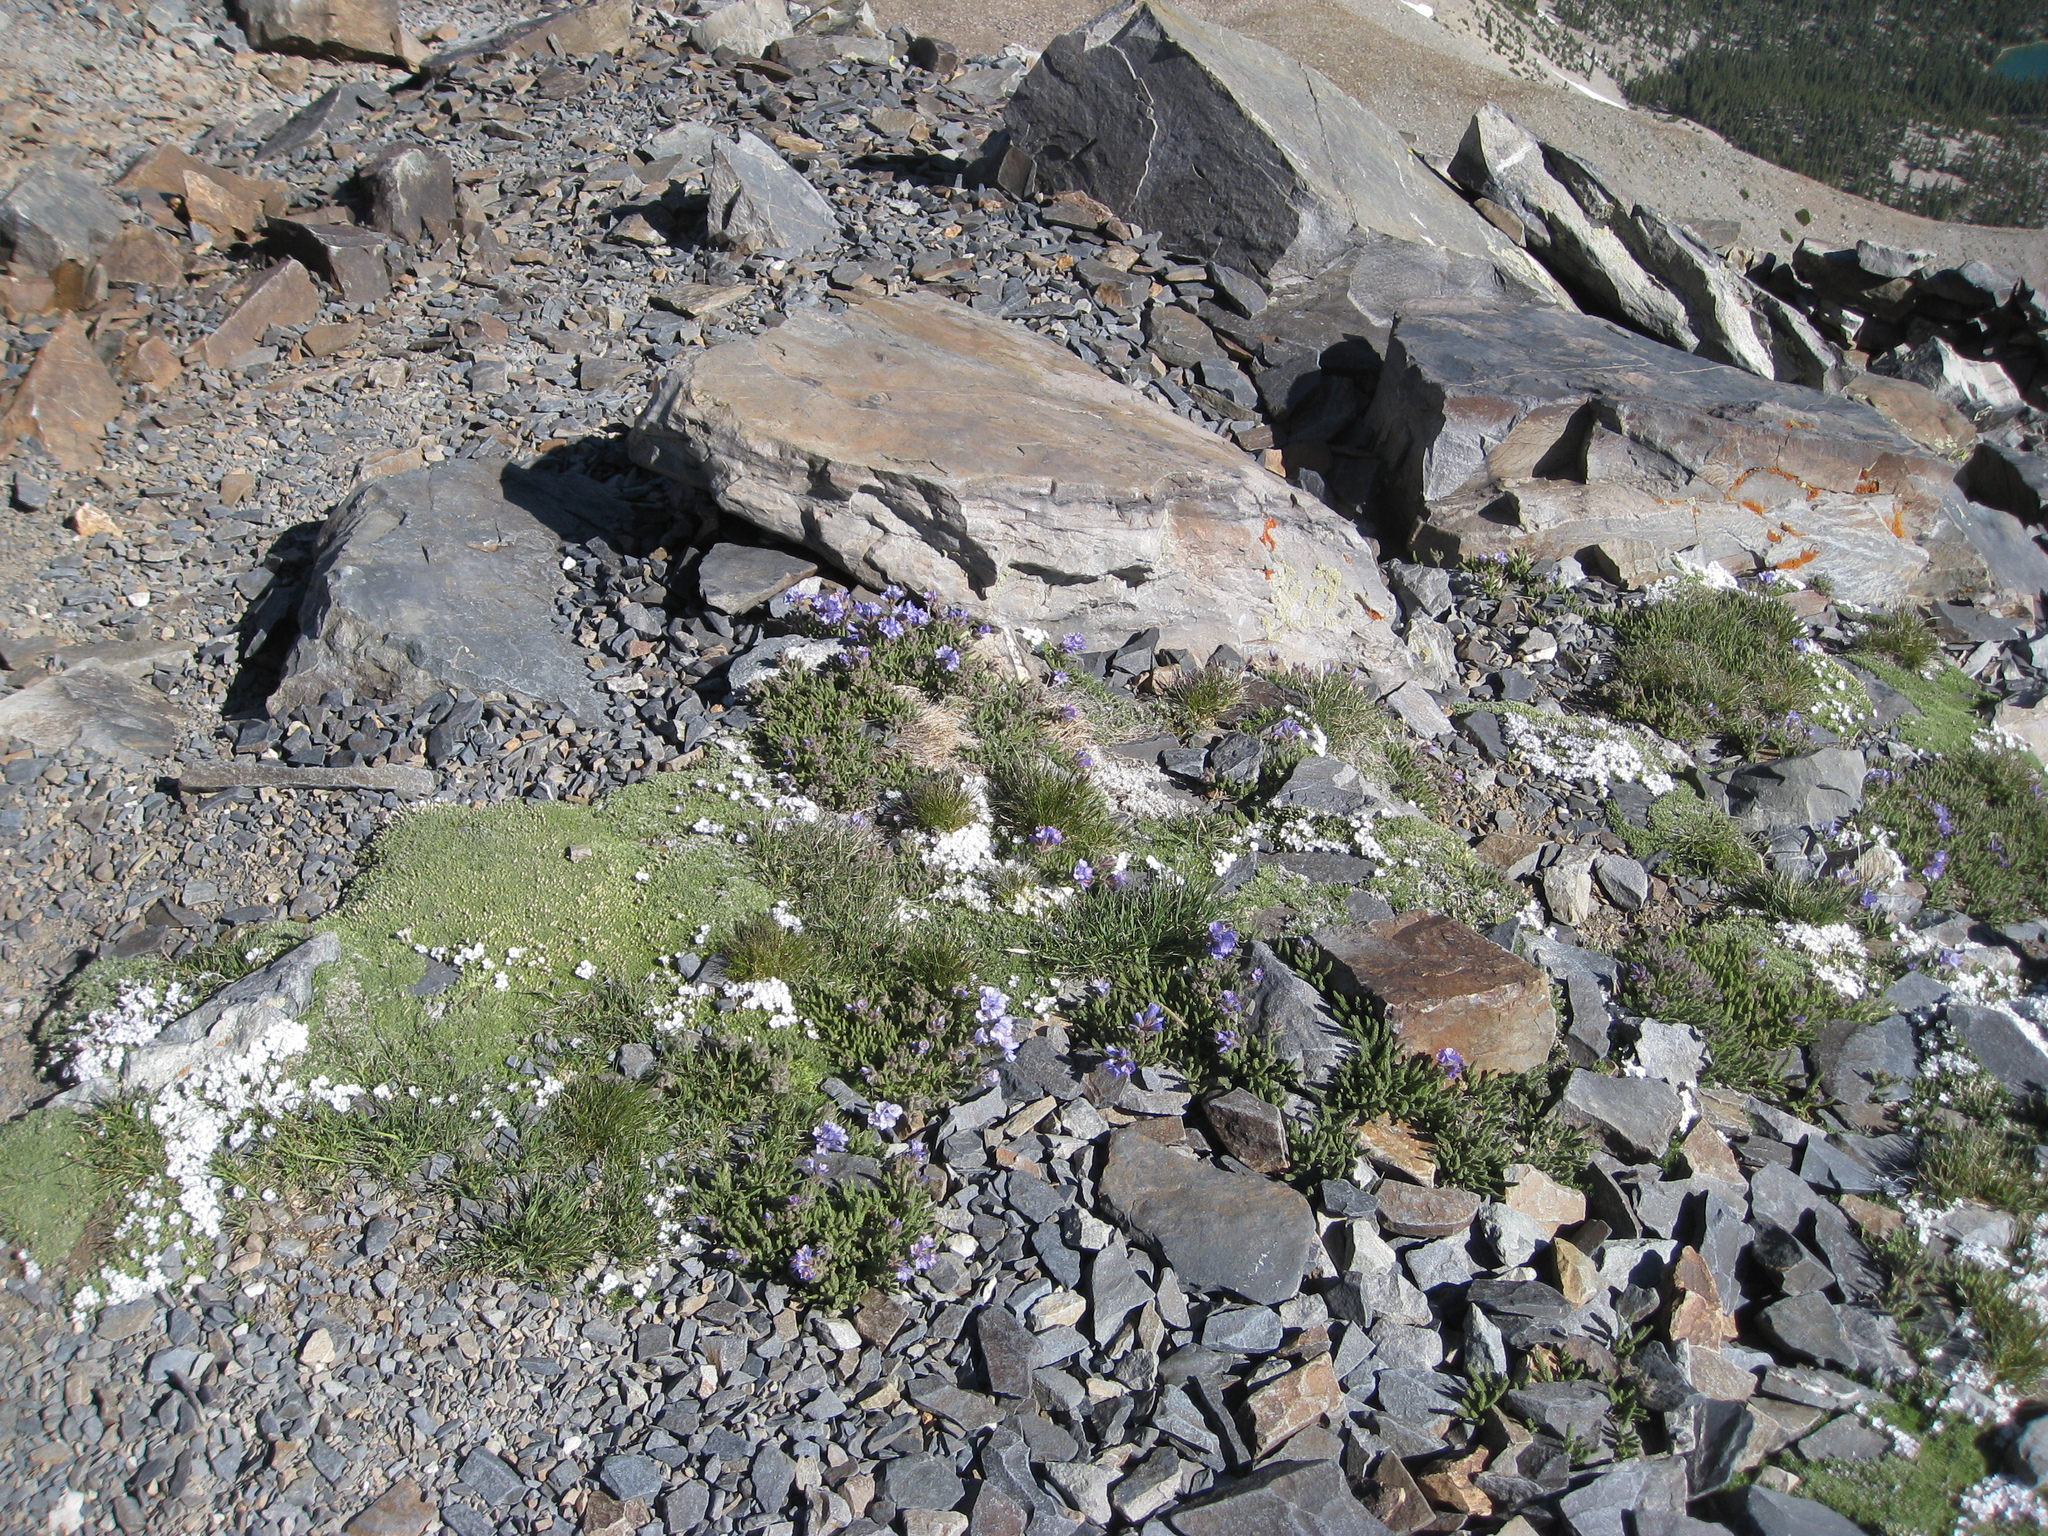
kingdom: Plantae
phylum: Tracheophyta
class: Magnoliopsida
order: Ericales
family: Polemoniaceae
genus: Polemonium
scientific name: Polemonium viscosum
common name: Skunk jacob's-ladder
